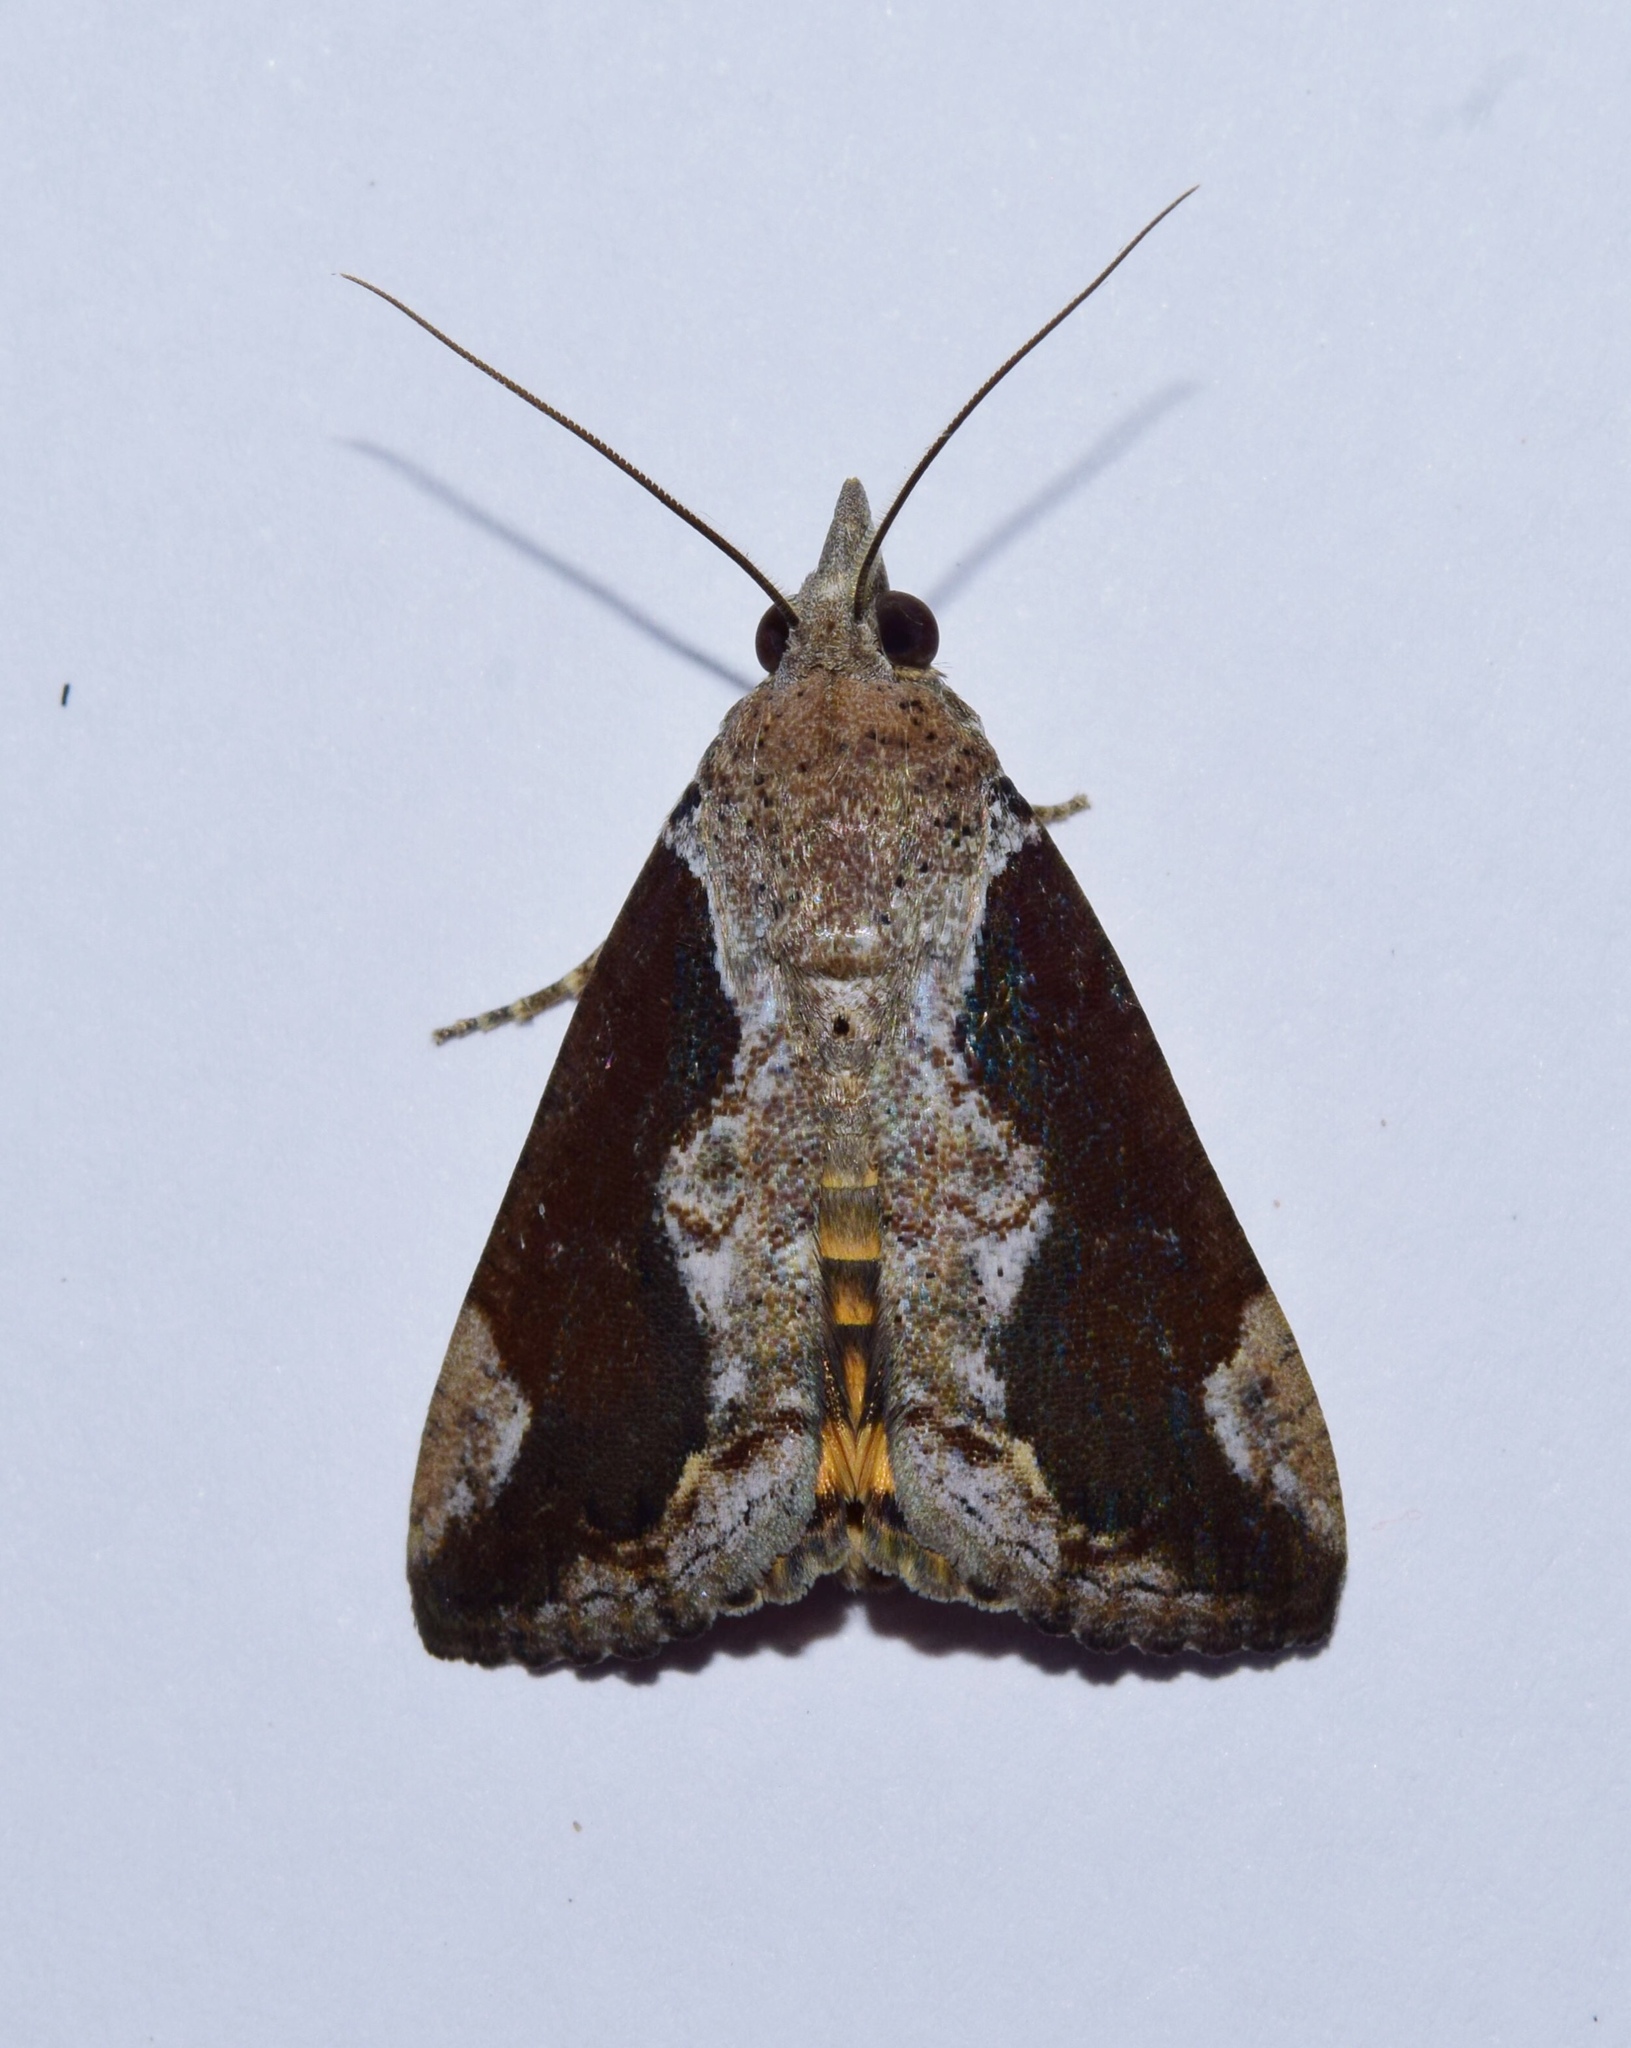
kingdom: Animalia
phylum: Arthropoda
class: Insecta
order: Lepidoptera
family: Erebidae
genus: Hypocala
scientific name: Hypocala rostrata
